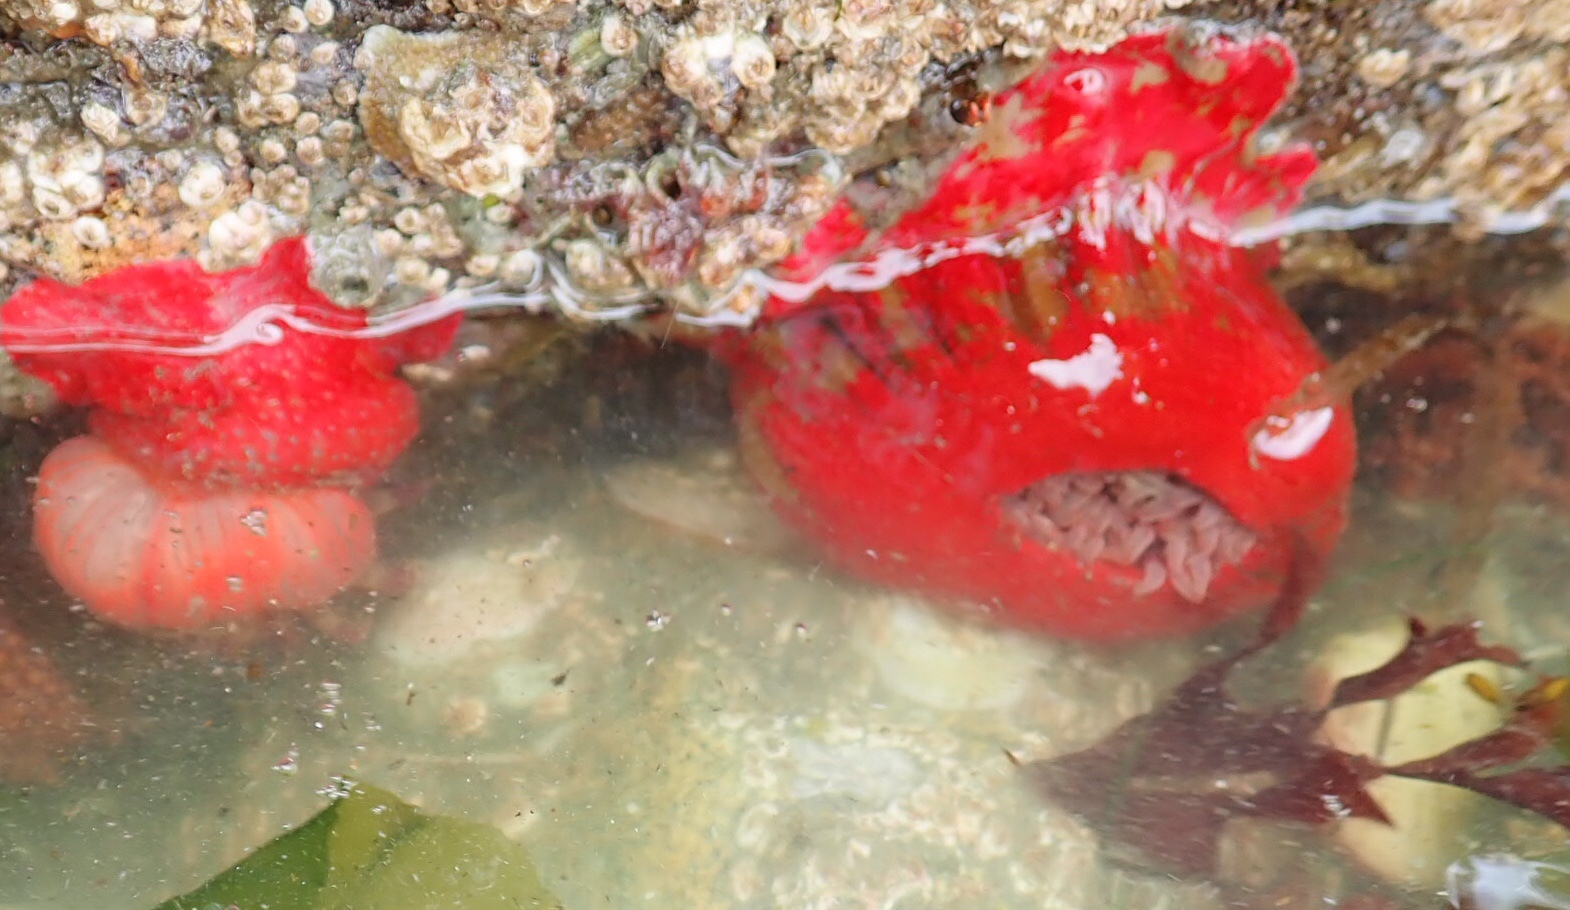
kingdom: Animalia
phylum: Cnidaria
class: Anthozoa
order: Actiniaria
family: Actiniidae
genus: Urticina
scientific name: Urticina grebelnyi
